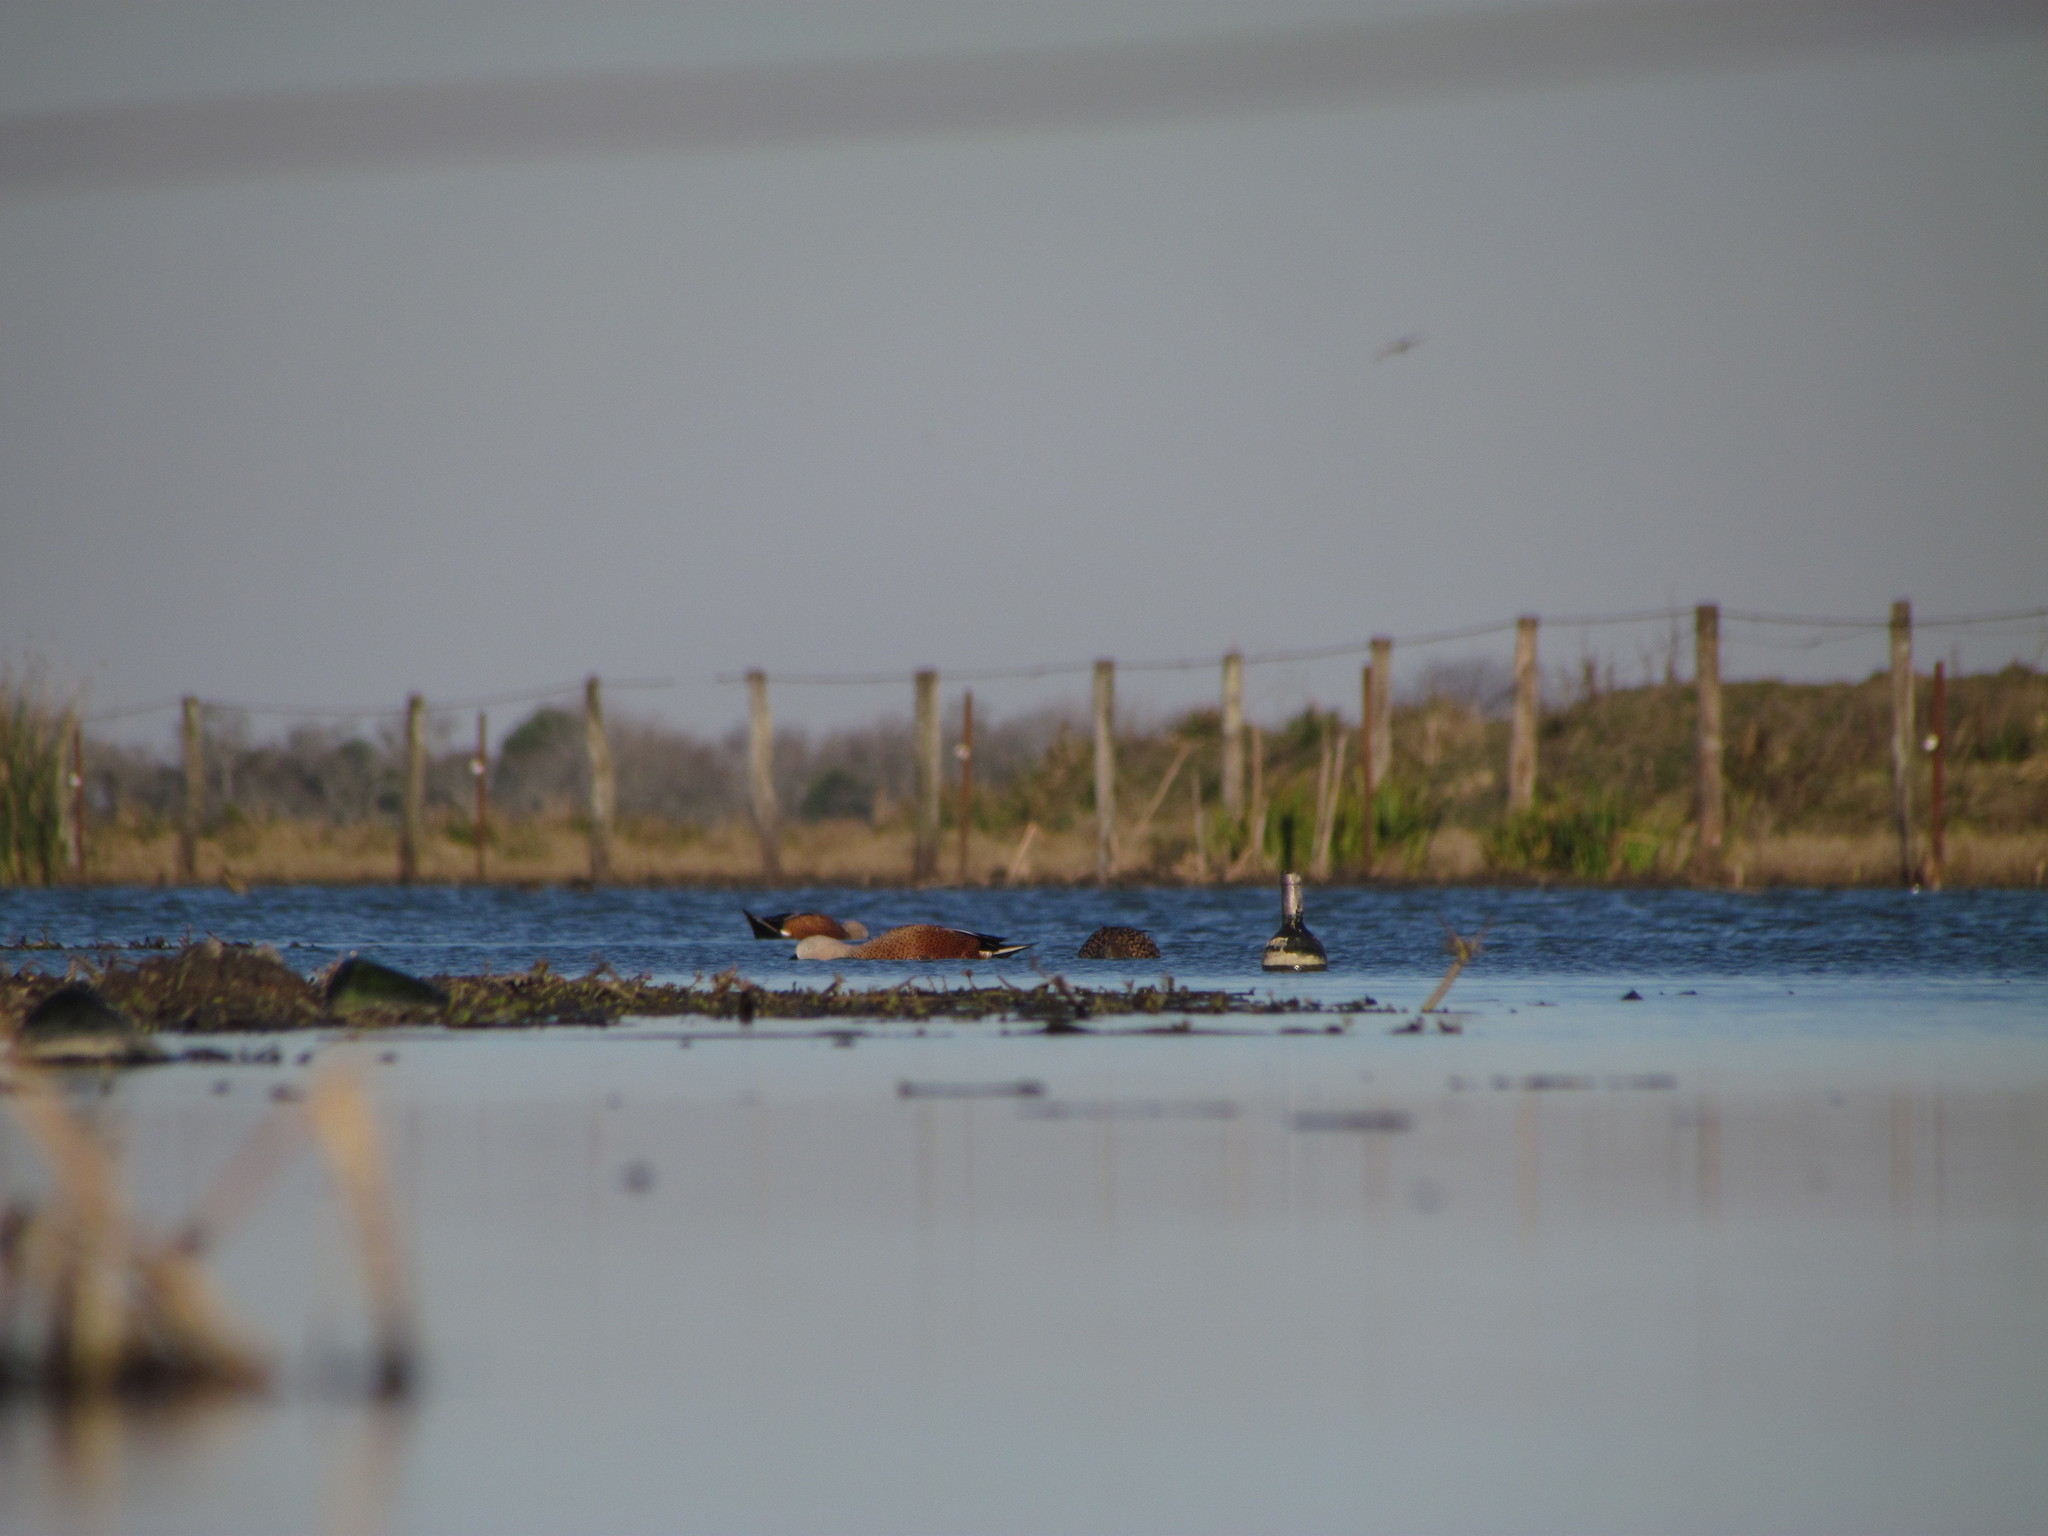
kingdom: Animalia
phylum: Chordata
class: Aves
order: Anseriformes
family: Anatidae
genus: Spatula
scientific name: Spatula platalea
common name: Red shoveler
